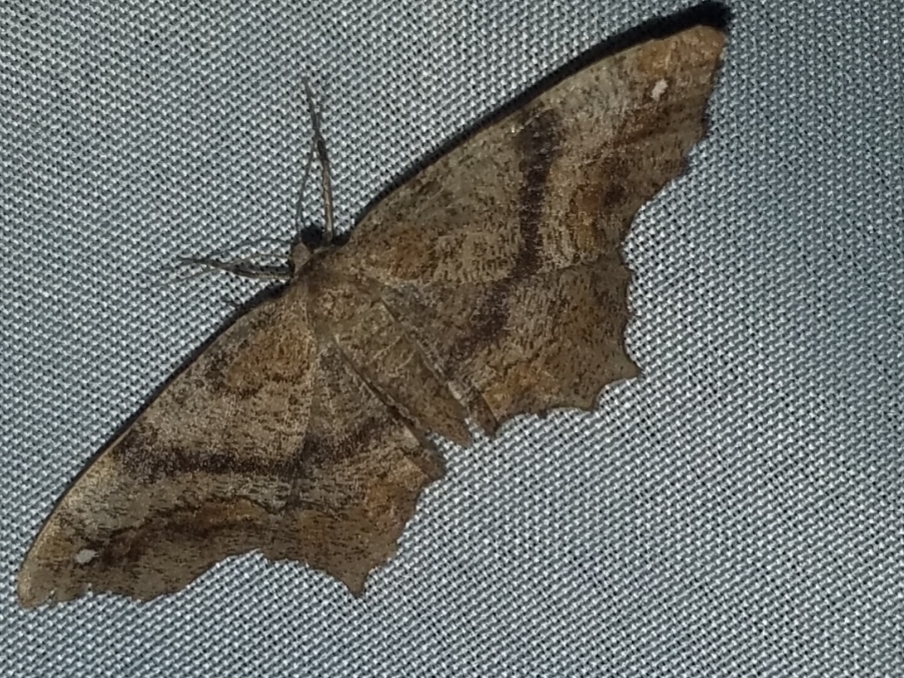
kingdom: Animalia
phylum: Arthropoda
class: Insecta
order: Lepidoptera
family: Geometridae
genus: Hypagyrtis
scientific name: Hypagyrtis unipunctata
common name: One-spotted variant
